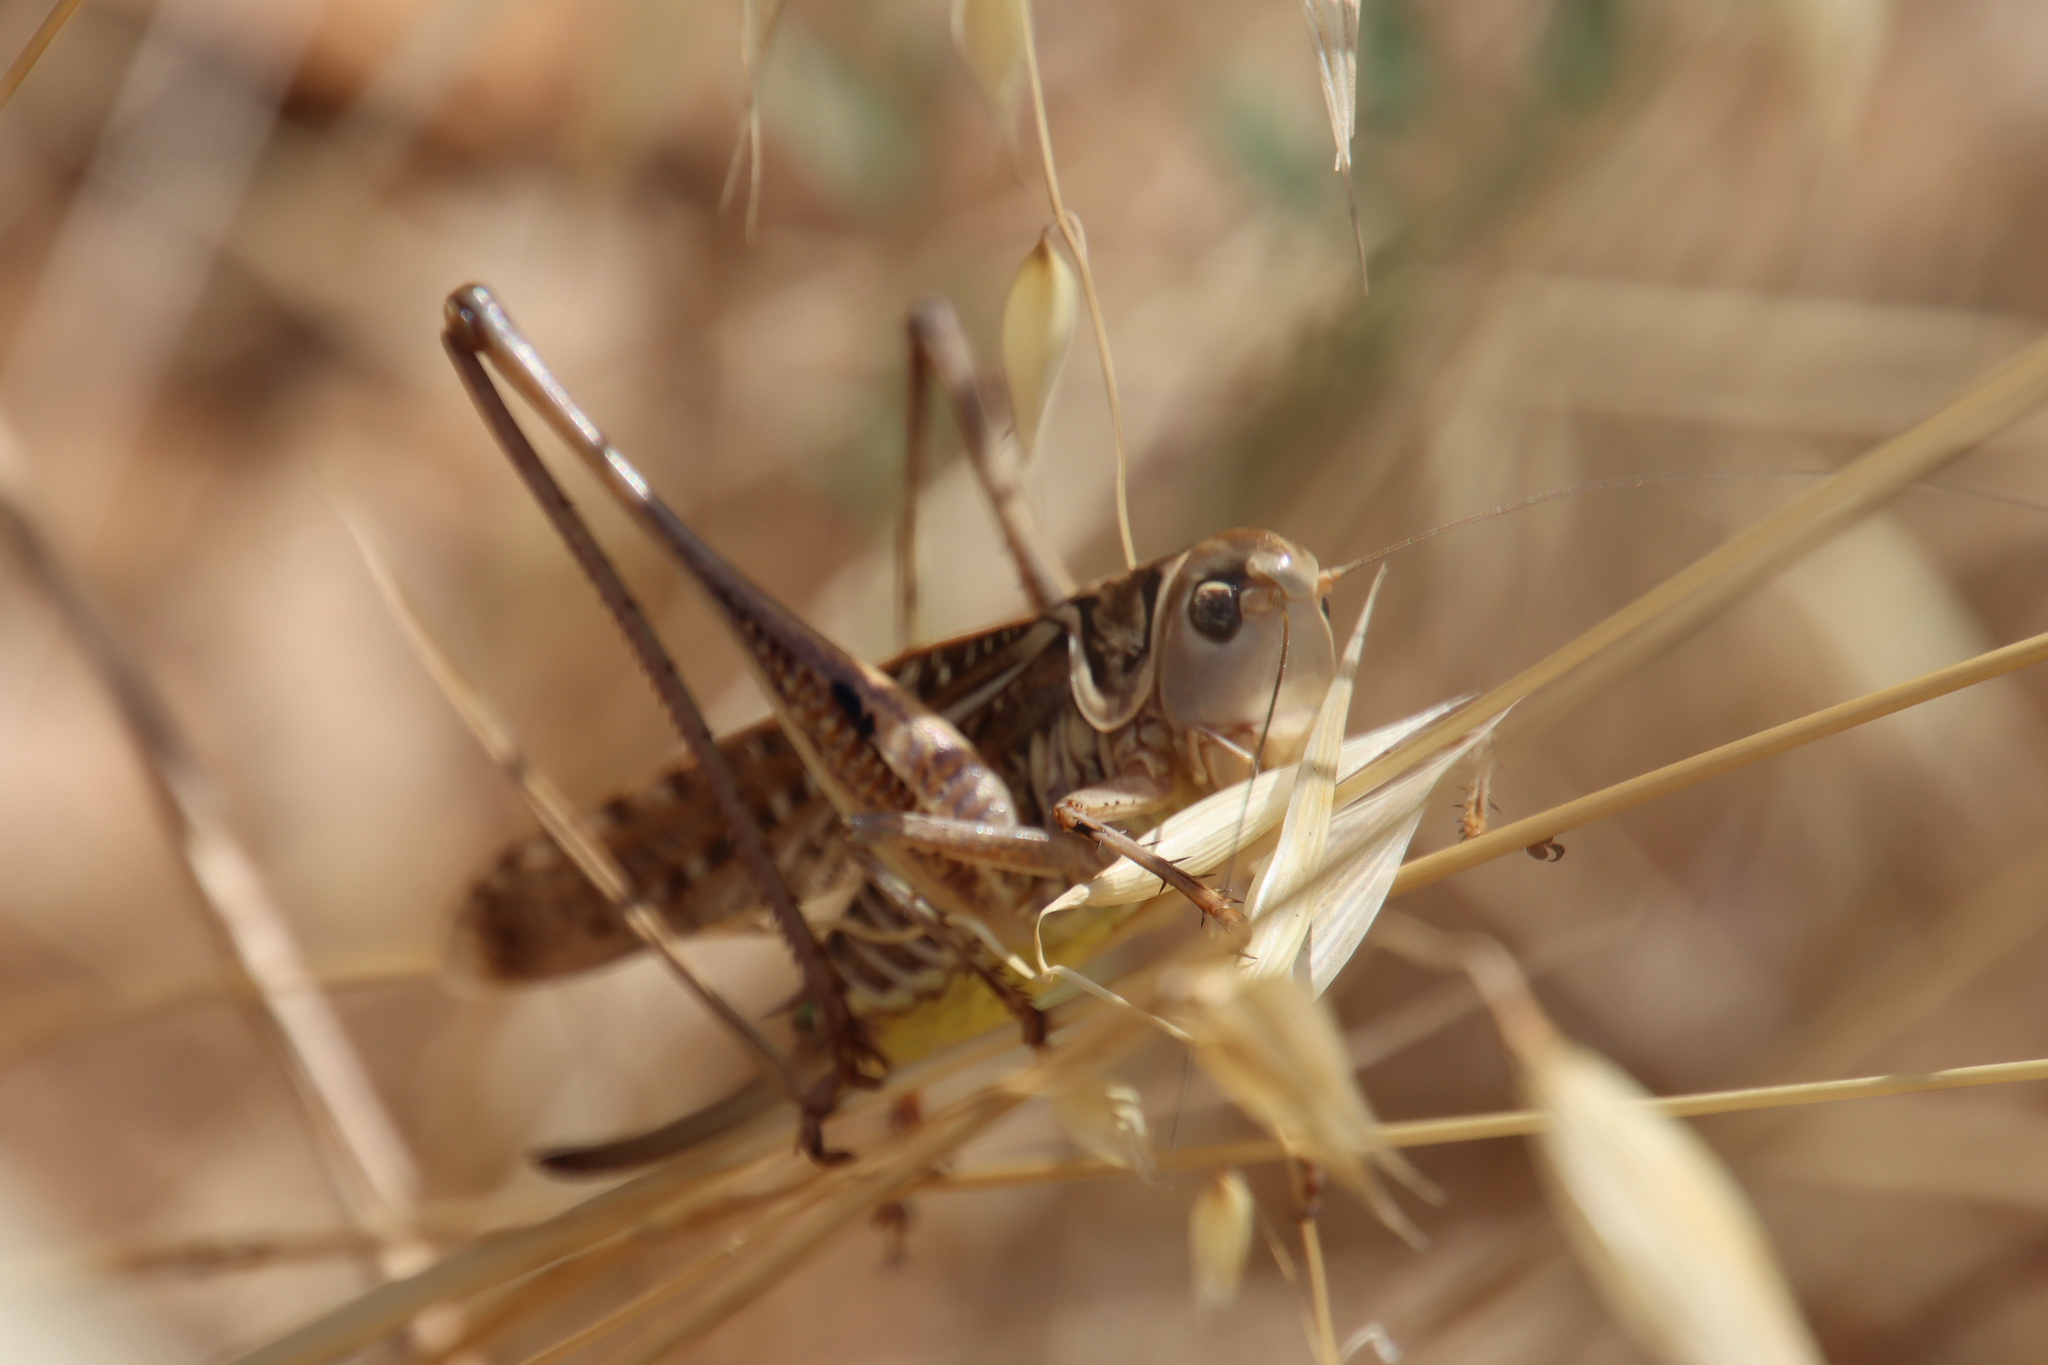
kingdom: Animalia
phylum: Arthropoda
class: Insecta
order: Orthoptera
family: Tettigoniidae
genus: Decticus
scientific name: Decticus albifrons
